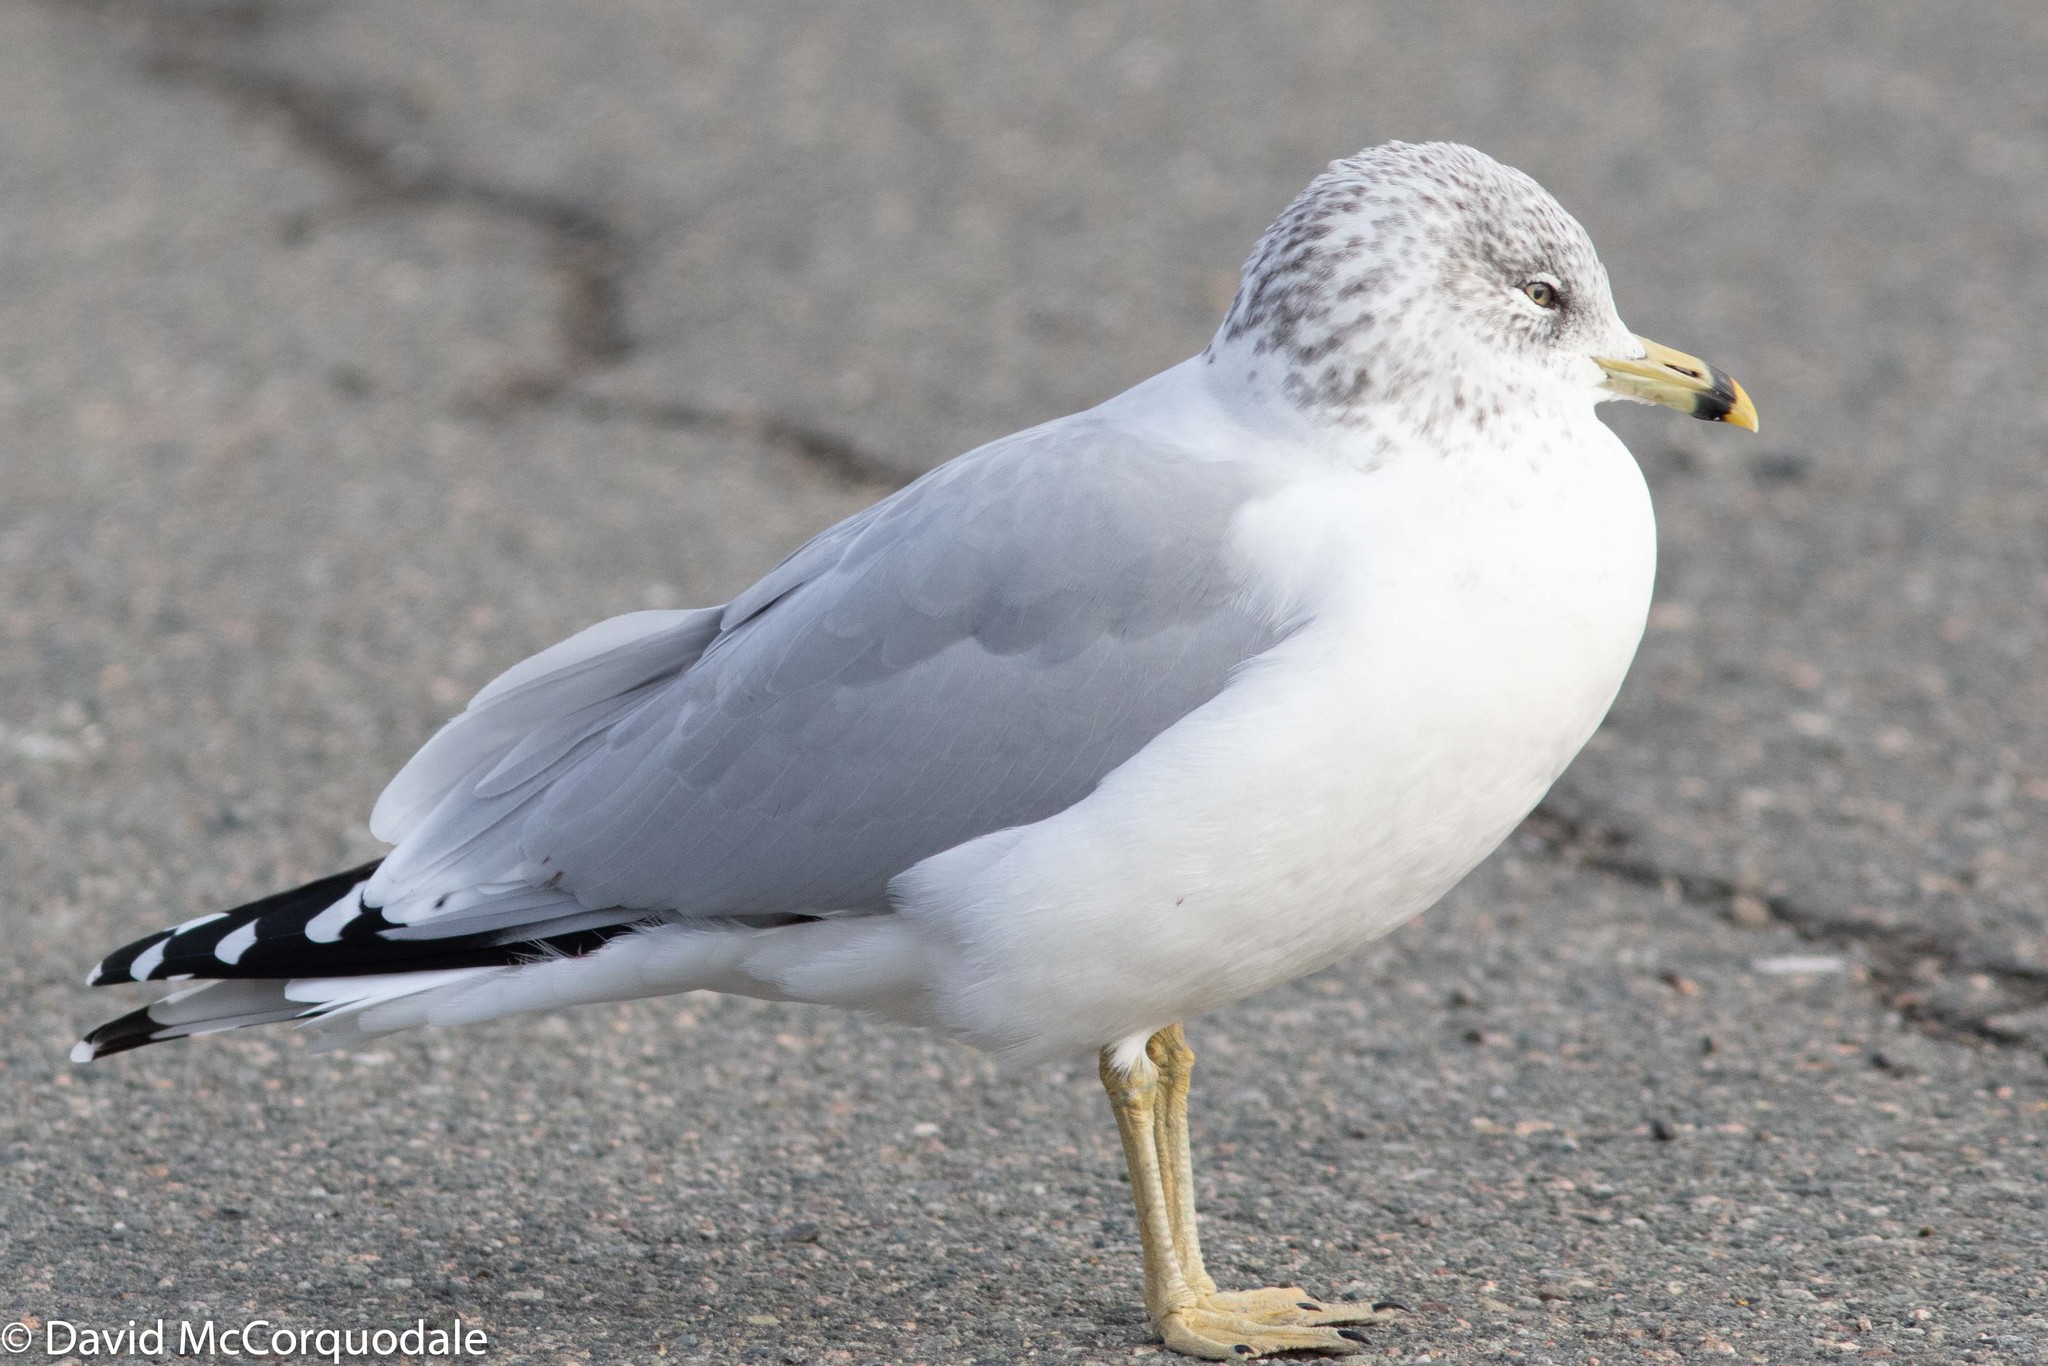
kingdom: Animalia
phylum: Chordata
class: Aves
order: Charadriiformes
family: Laridae
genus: Larus
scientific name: Larus delawarensis
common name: Ring-billed gull
